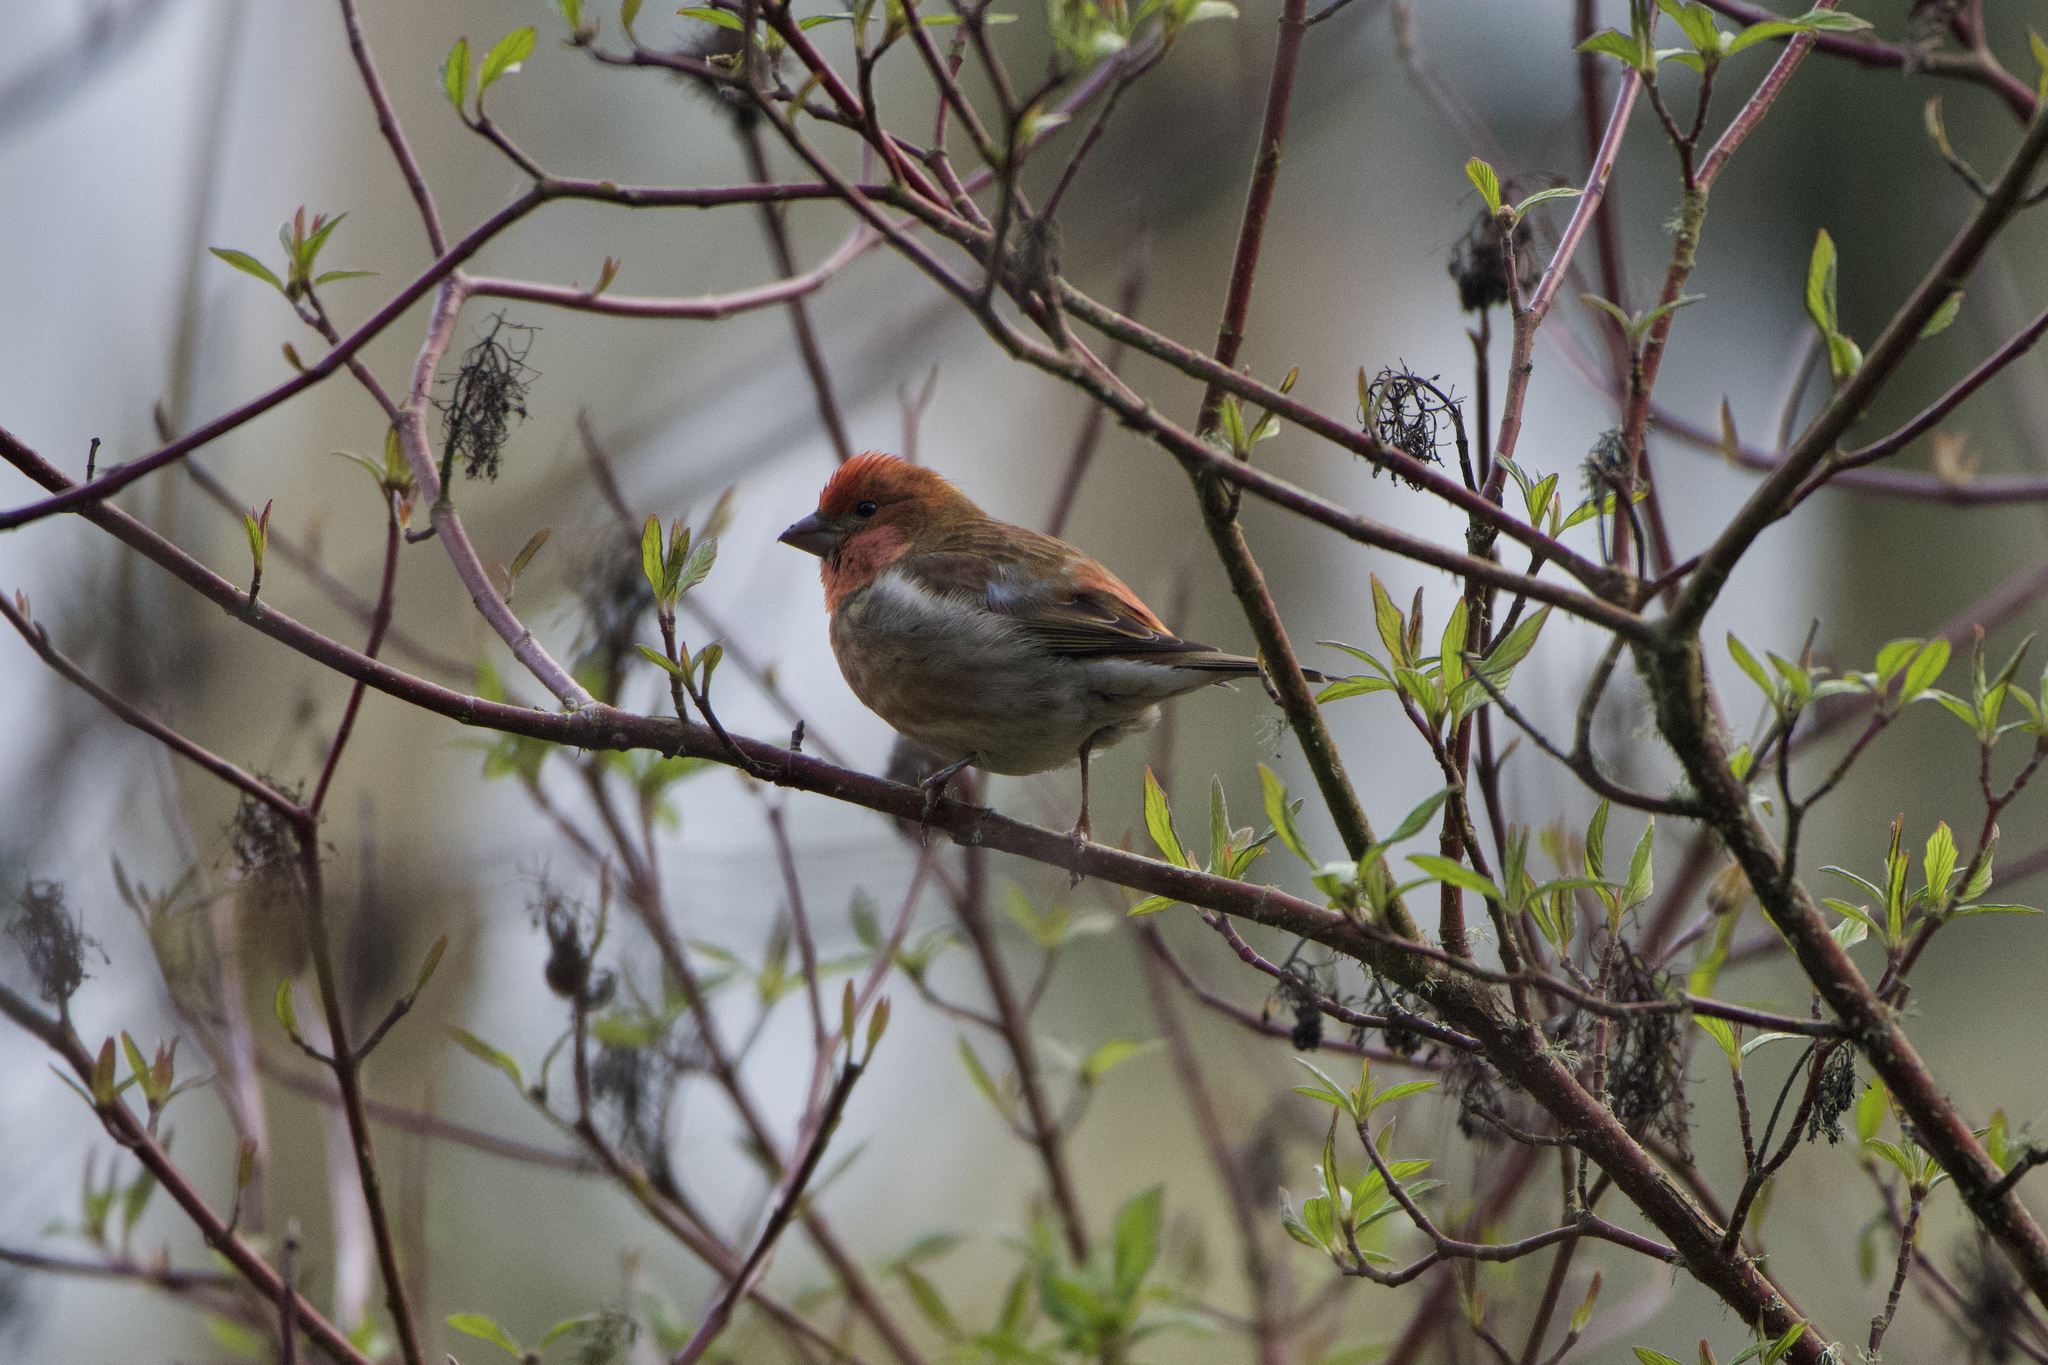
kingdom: Animalia
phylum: Chordata
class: Aves
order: Passeriformes
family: Fringillidae
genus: Haemorhous
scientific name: Haemorhous mexicanus
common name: House finch
